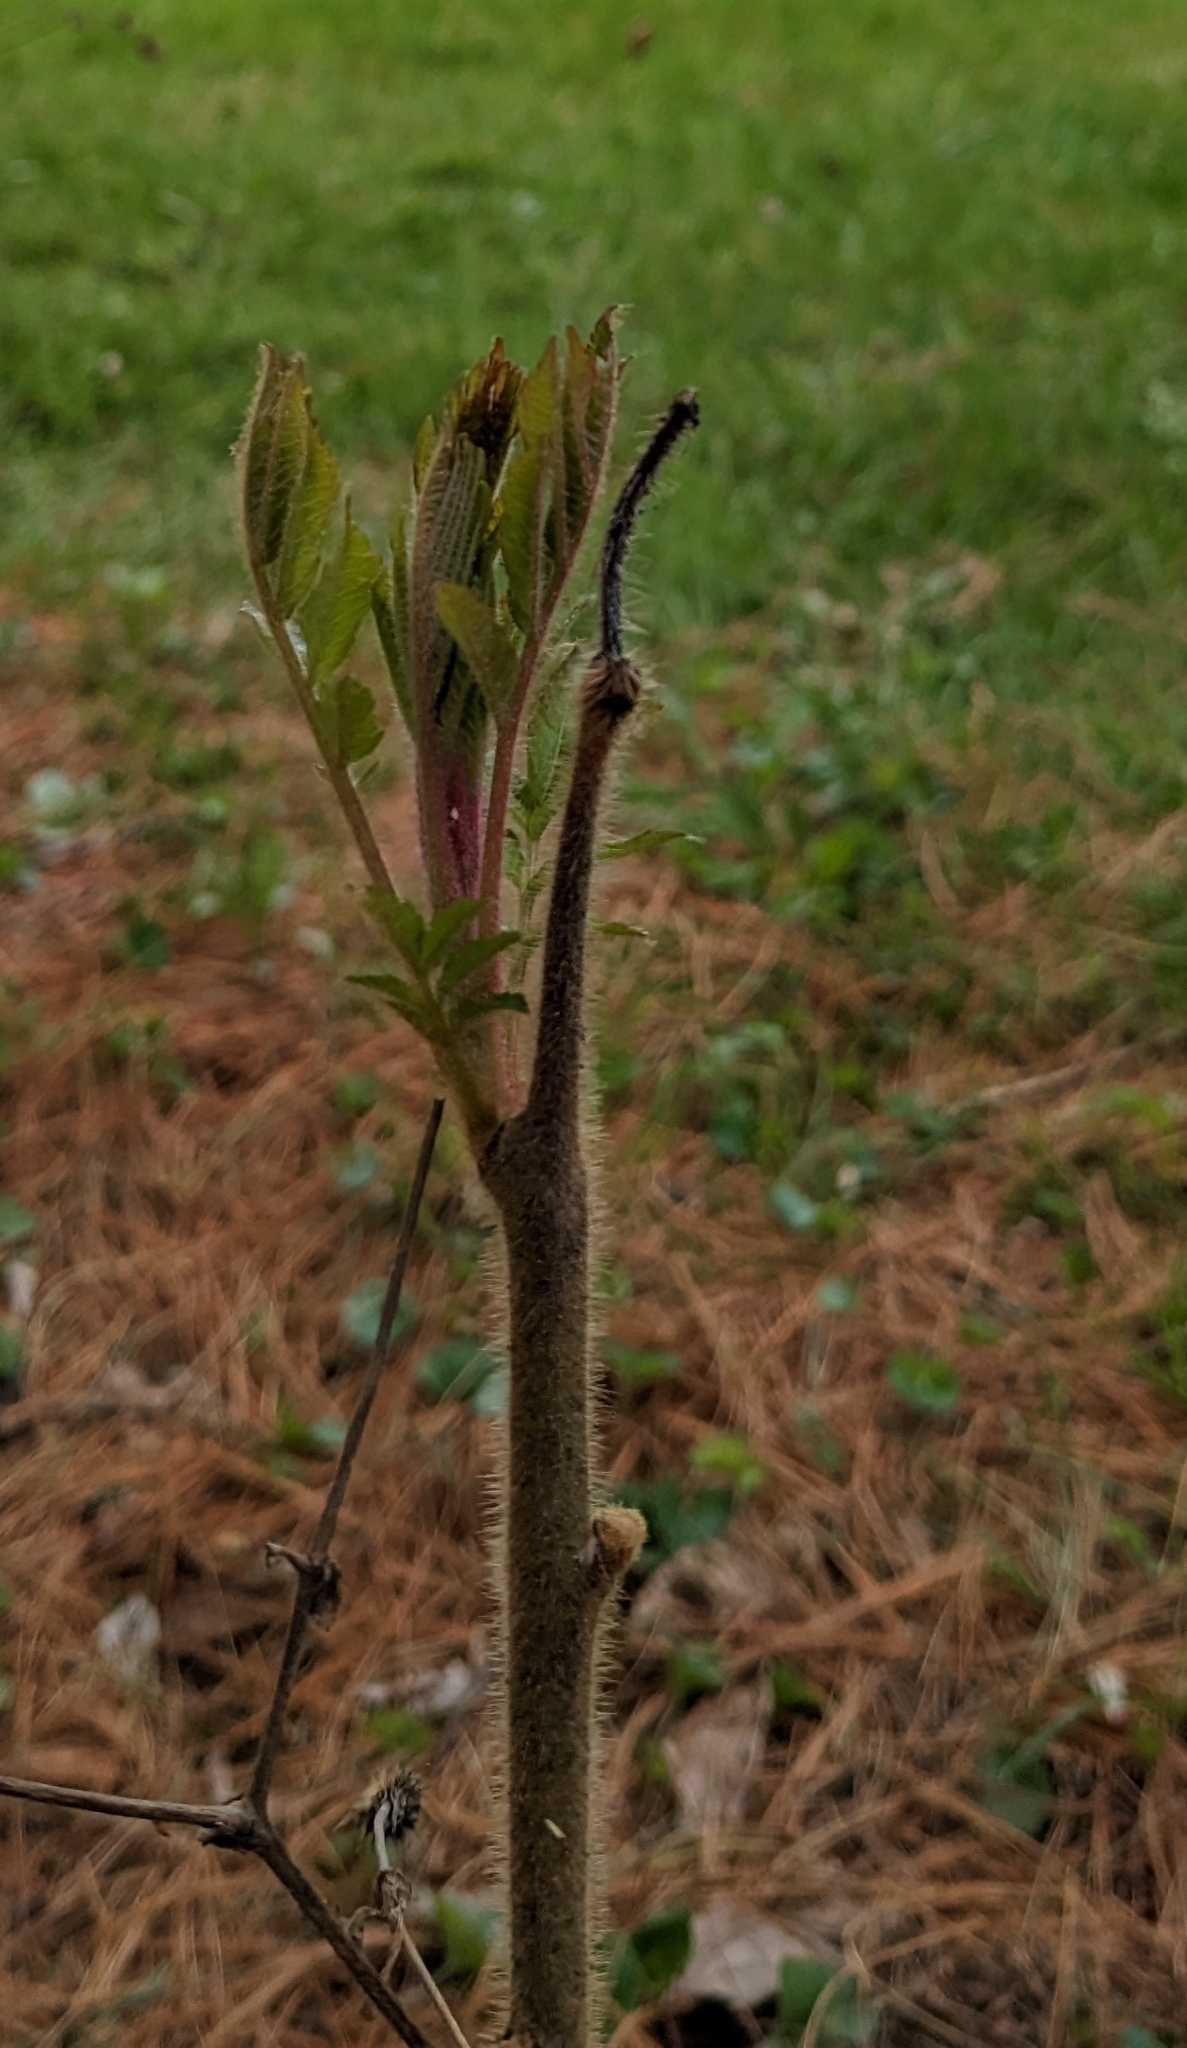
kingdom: Plantae
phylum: Tracheophyta
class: Magnoliopsida
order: Sapindales
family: Anacardiaceae
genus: Rhus
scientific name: Rhus typhina
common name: Staghorn sumac
